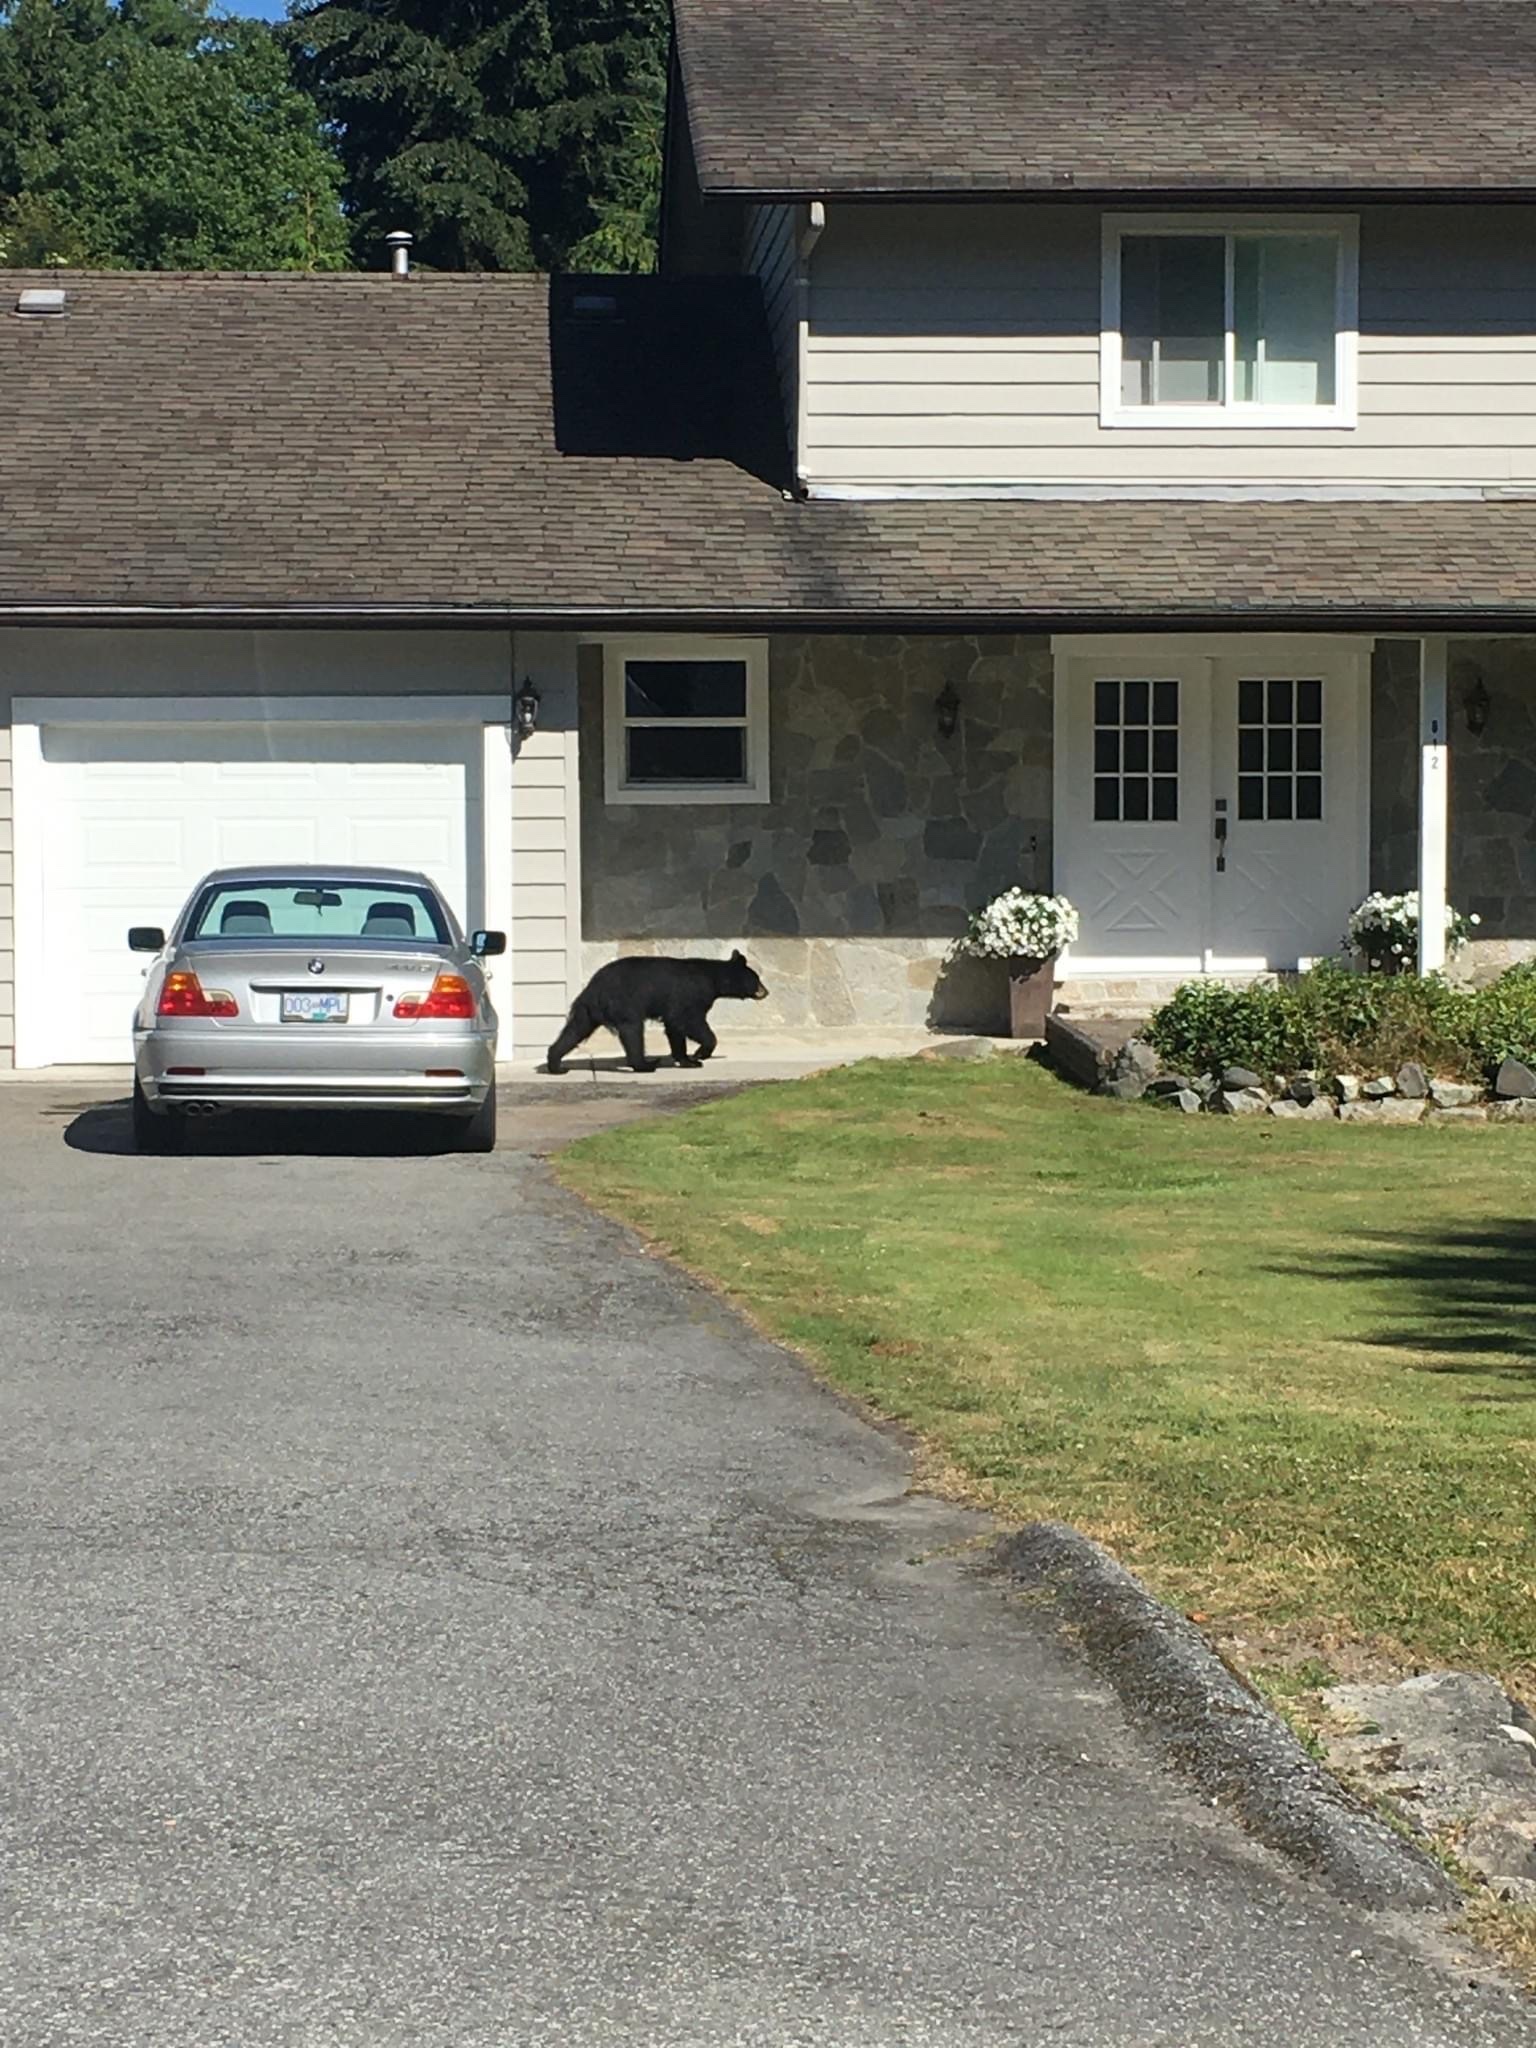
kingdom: Animalia
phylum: Chordata
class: Mammalia
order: Carnivora
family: Ursidae
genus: Ursus
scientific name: Ursus americanus
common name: American black bear
